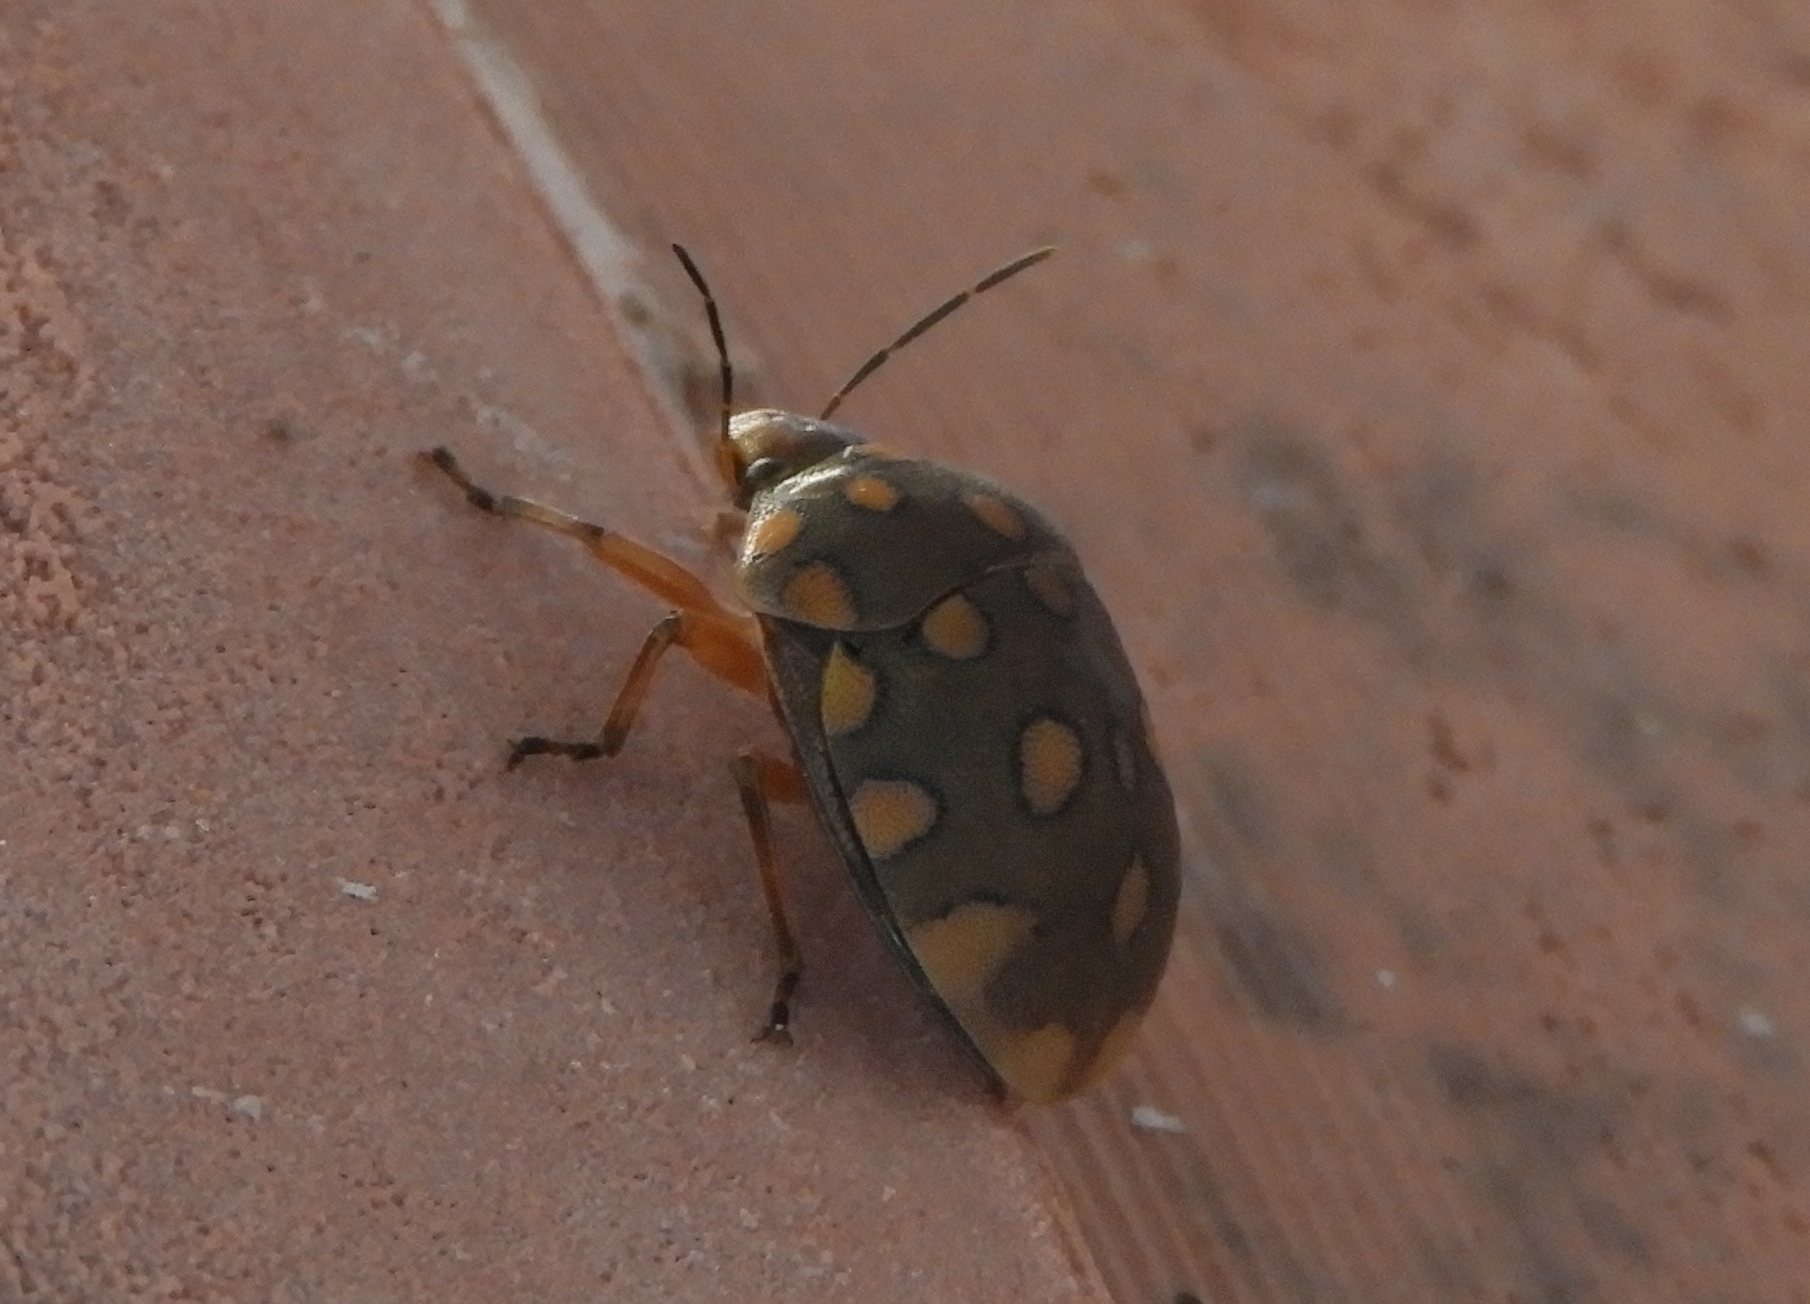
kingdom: Animalia
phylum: Arthropoda
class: Insecta
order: Hemiptera
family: Scutelleridae
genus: Pachycoris
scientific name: Pachycoris torridus
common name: Torrid jewel bug
